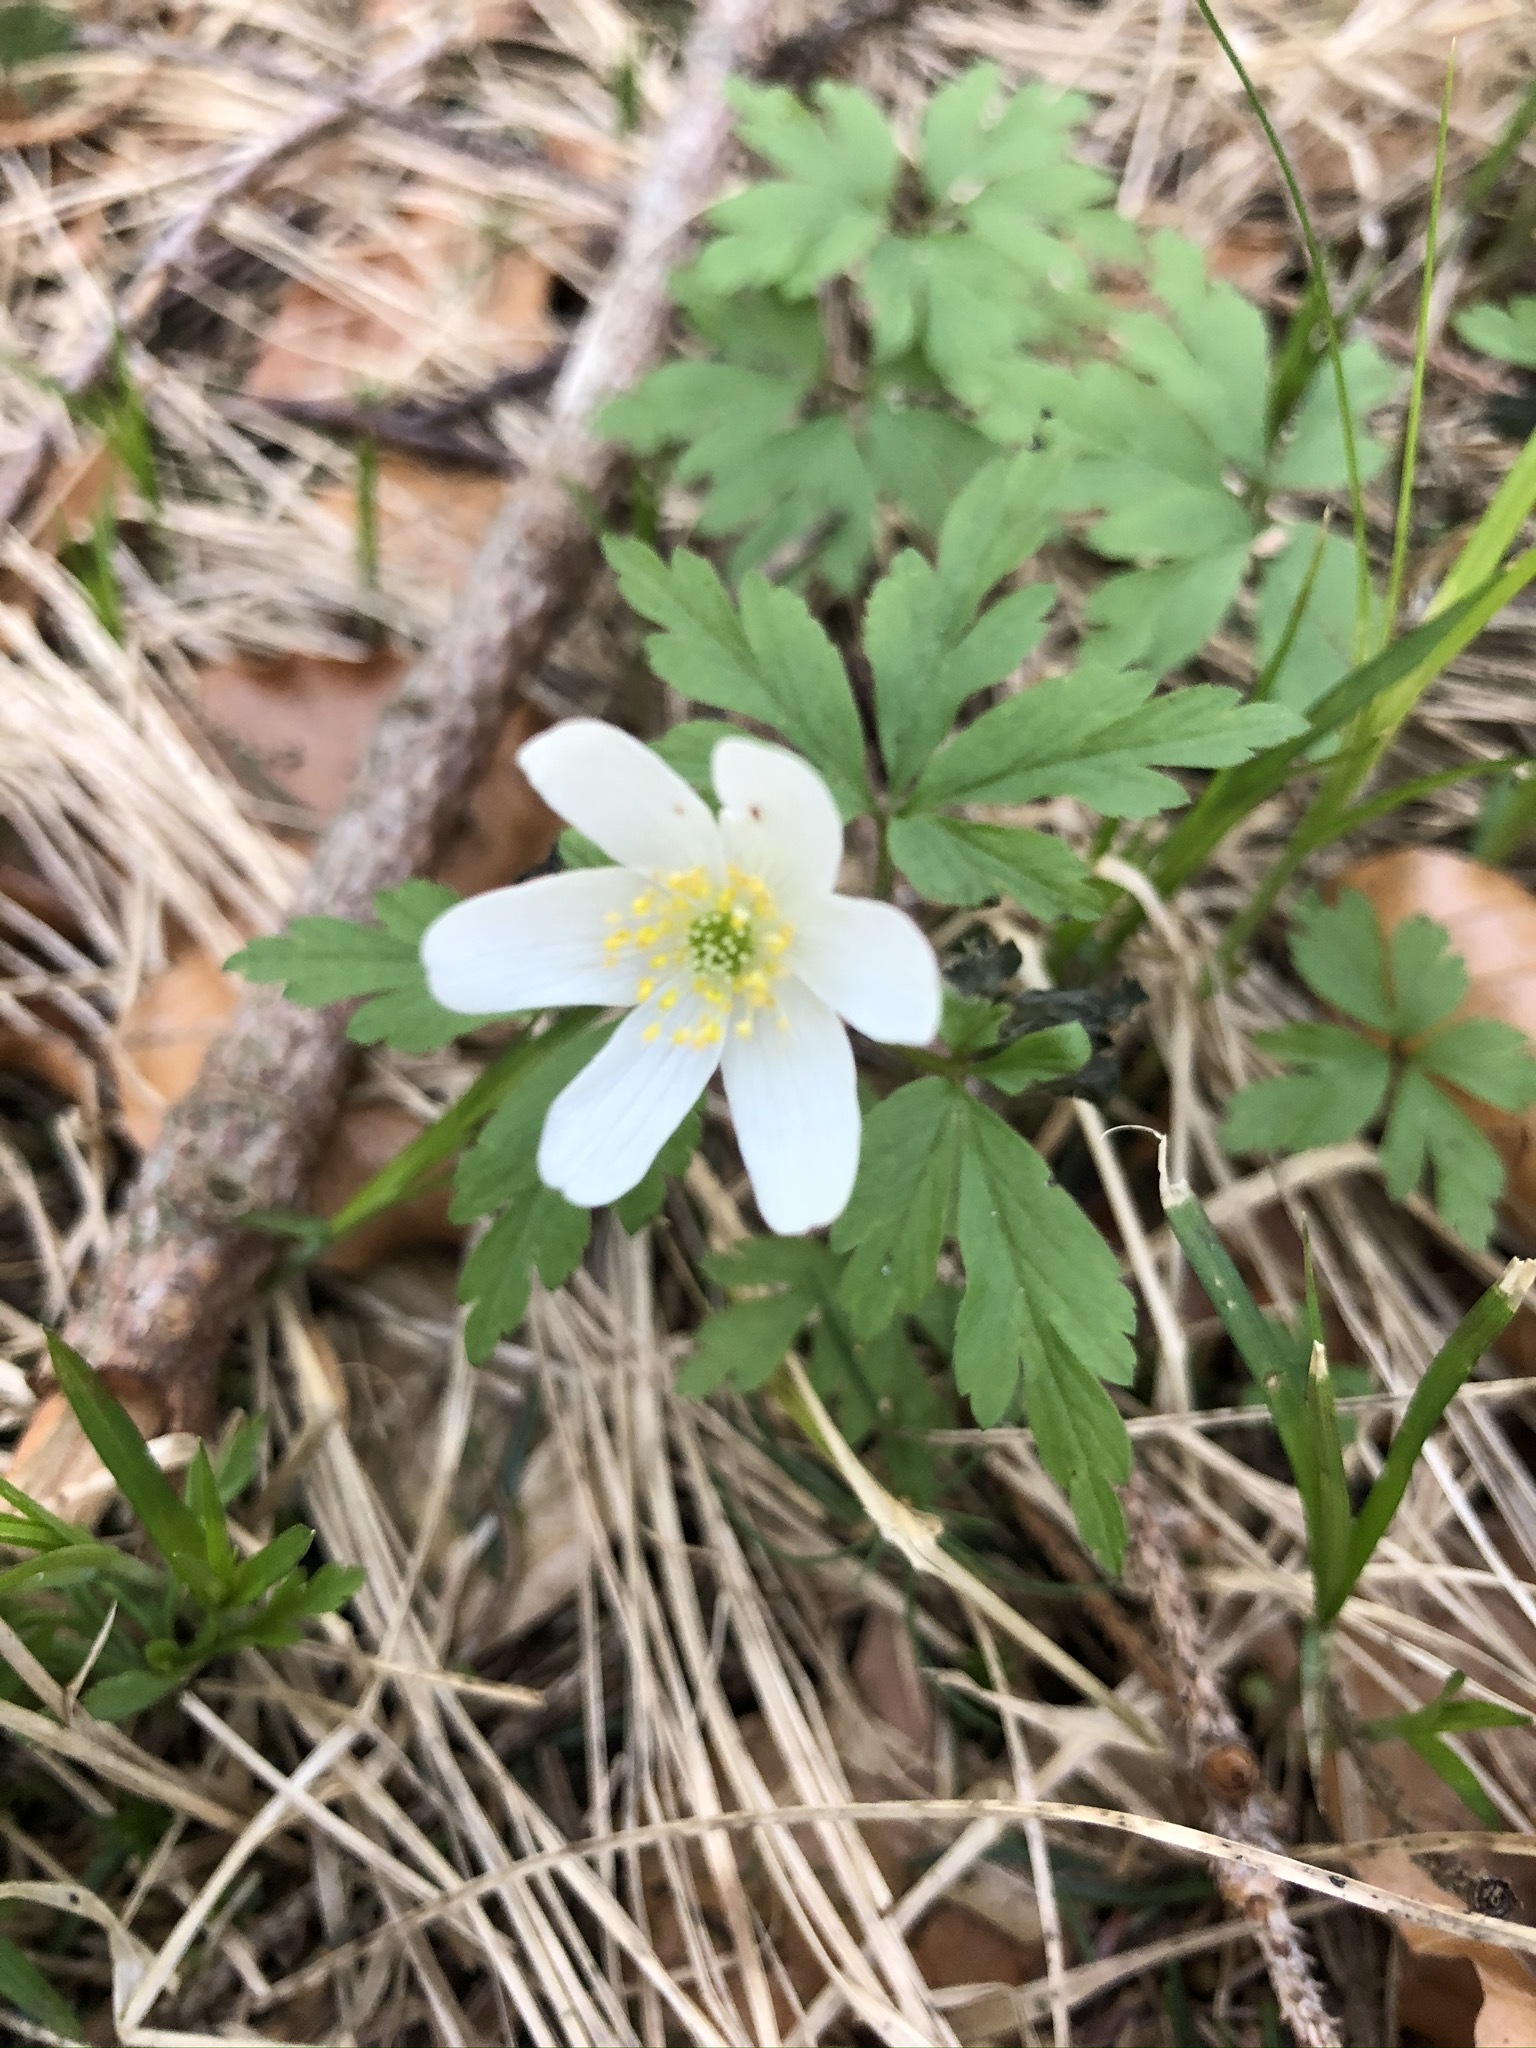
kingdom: Plantae
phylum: Tracheophyta
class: Magnoliopsida
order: Ranunculales
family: Ranunculaceae
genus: Anemone
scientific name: Anemone nemorosa
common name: Wood anemone
